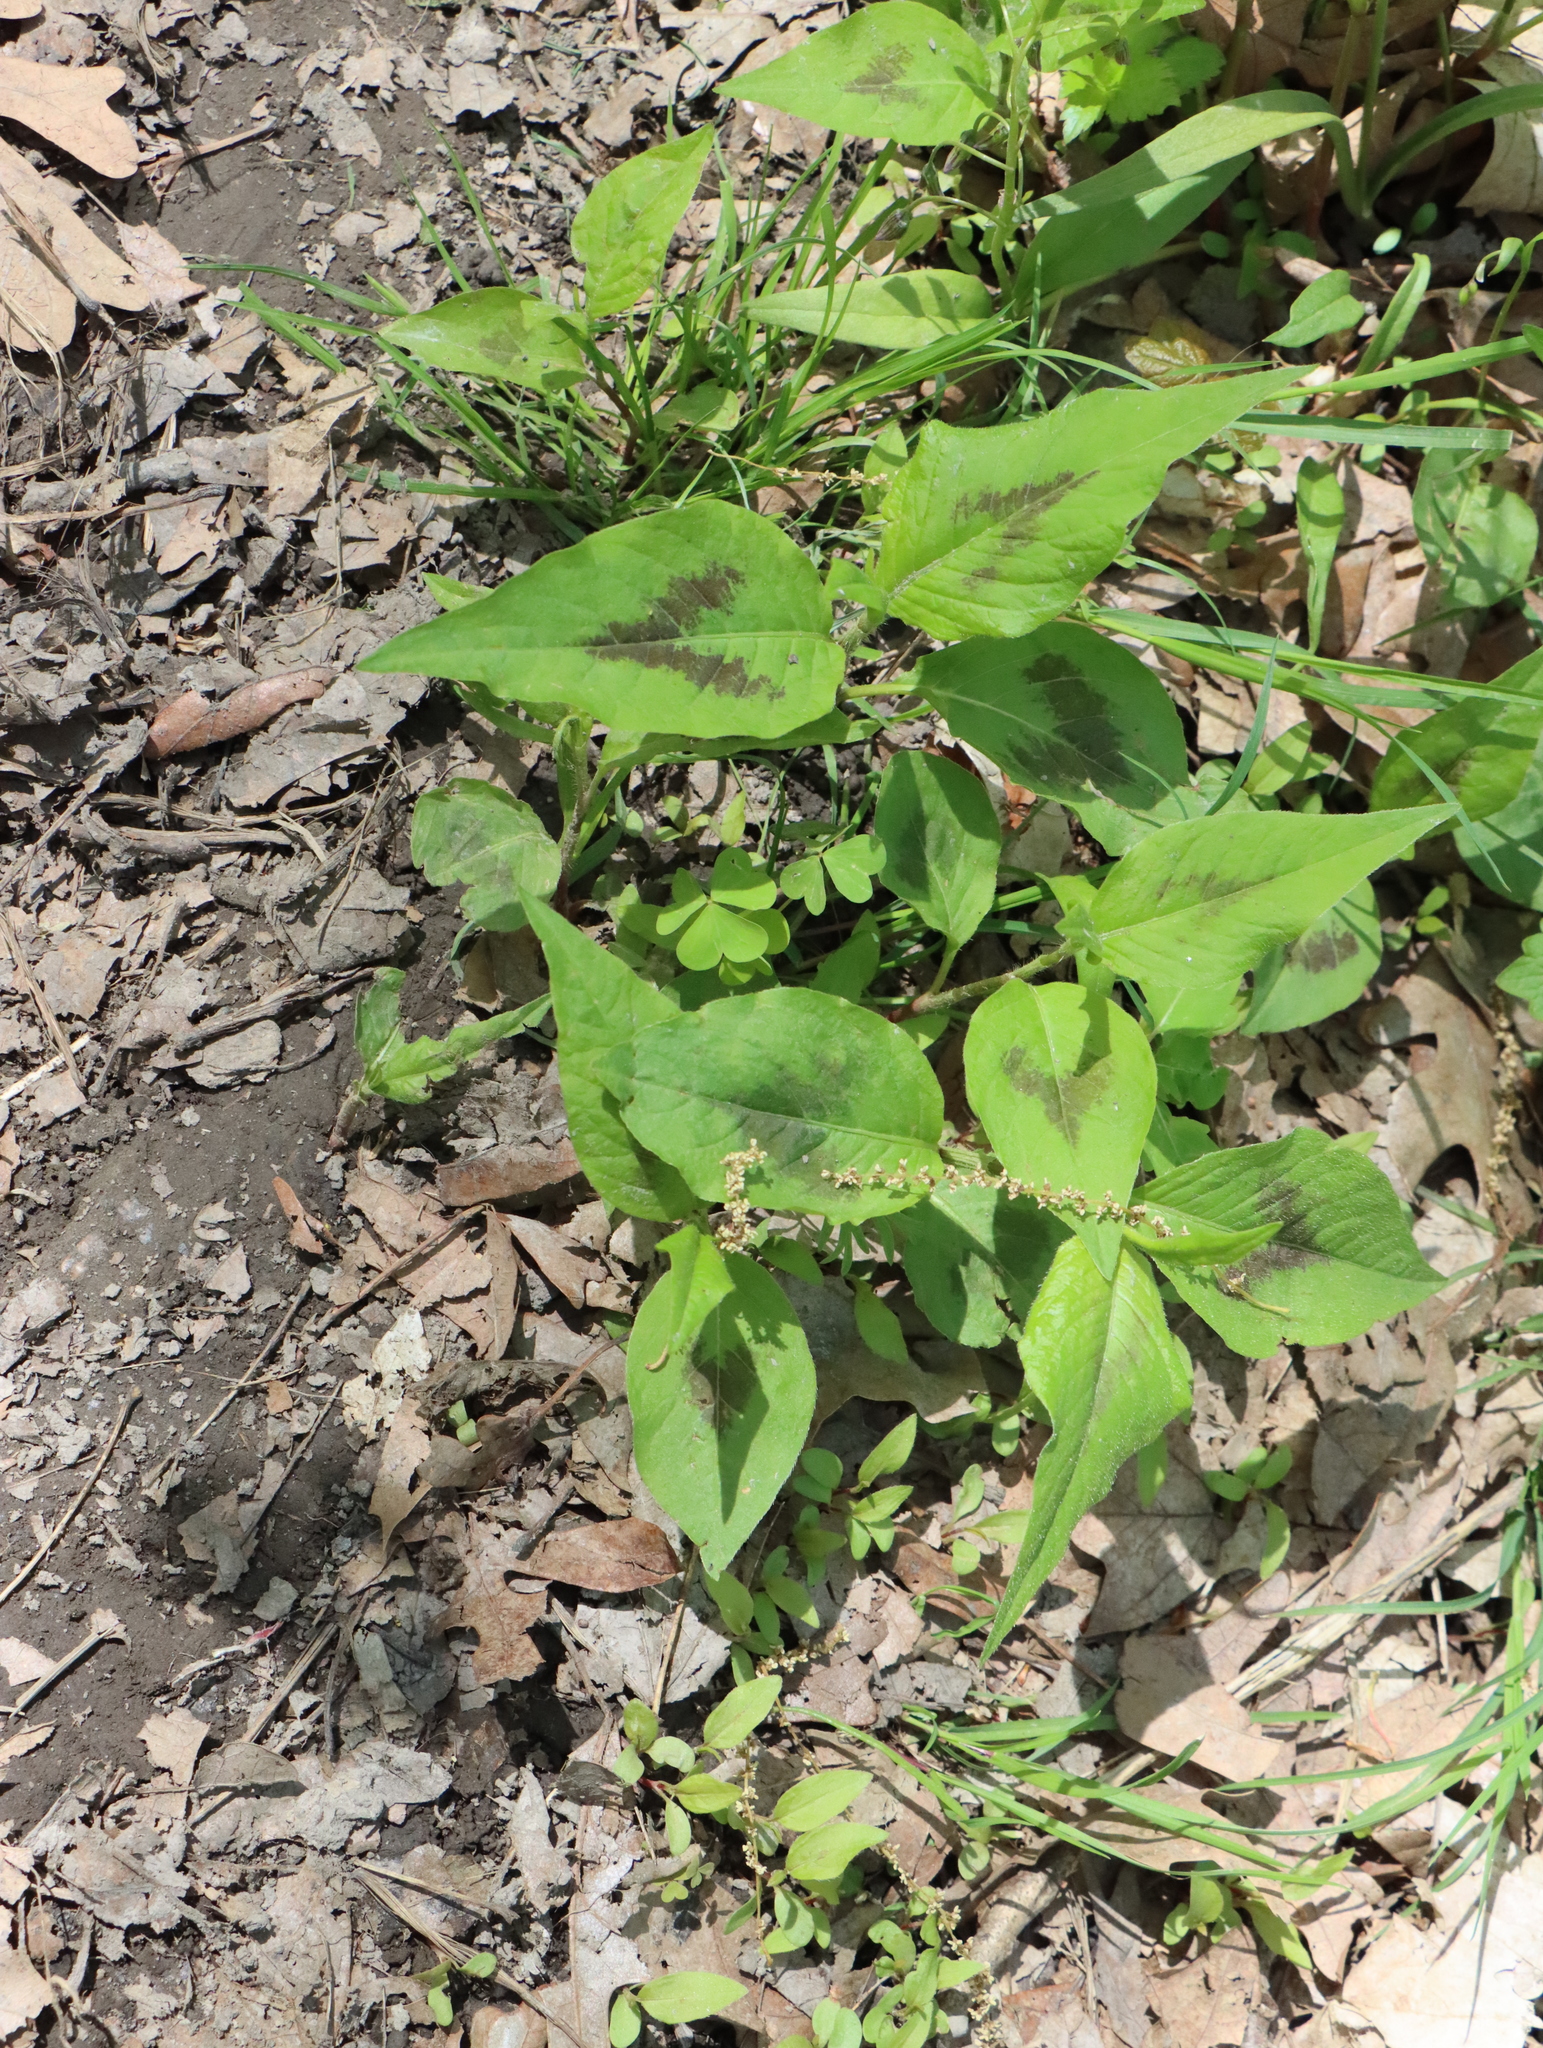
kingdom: Plantae
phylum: Tracheophyta
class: Magnoliopsida
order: Caryophyllales
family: Polygonaceae
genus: Persicaria
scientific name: Persicaria virginiana
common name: Jumpseed
